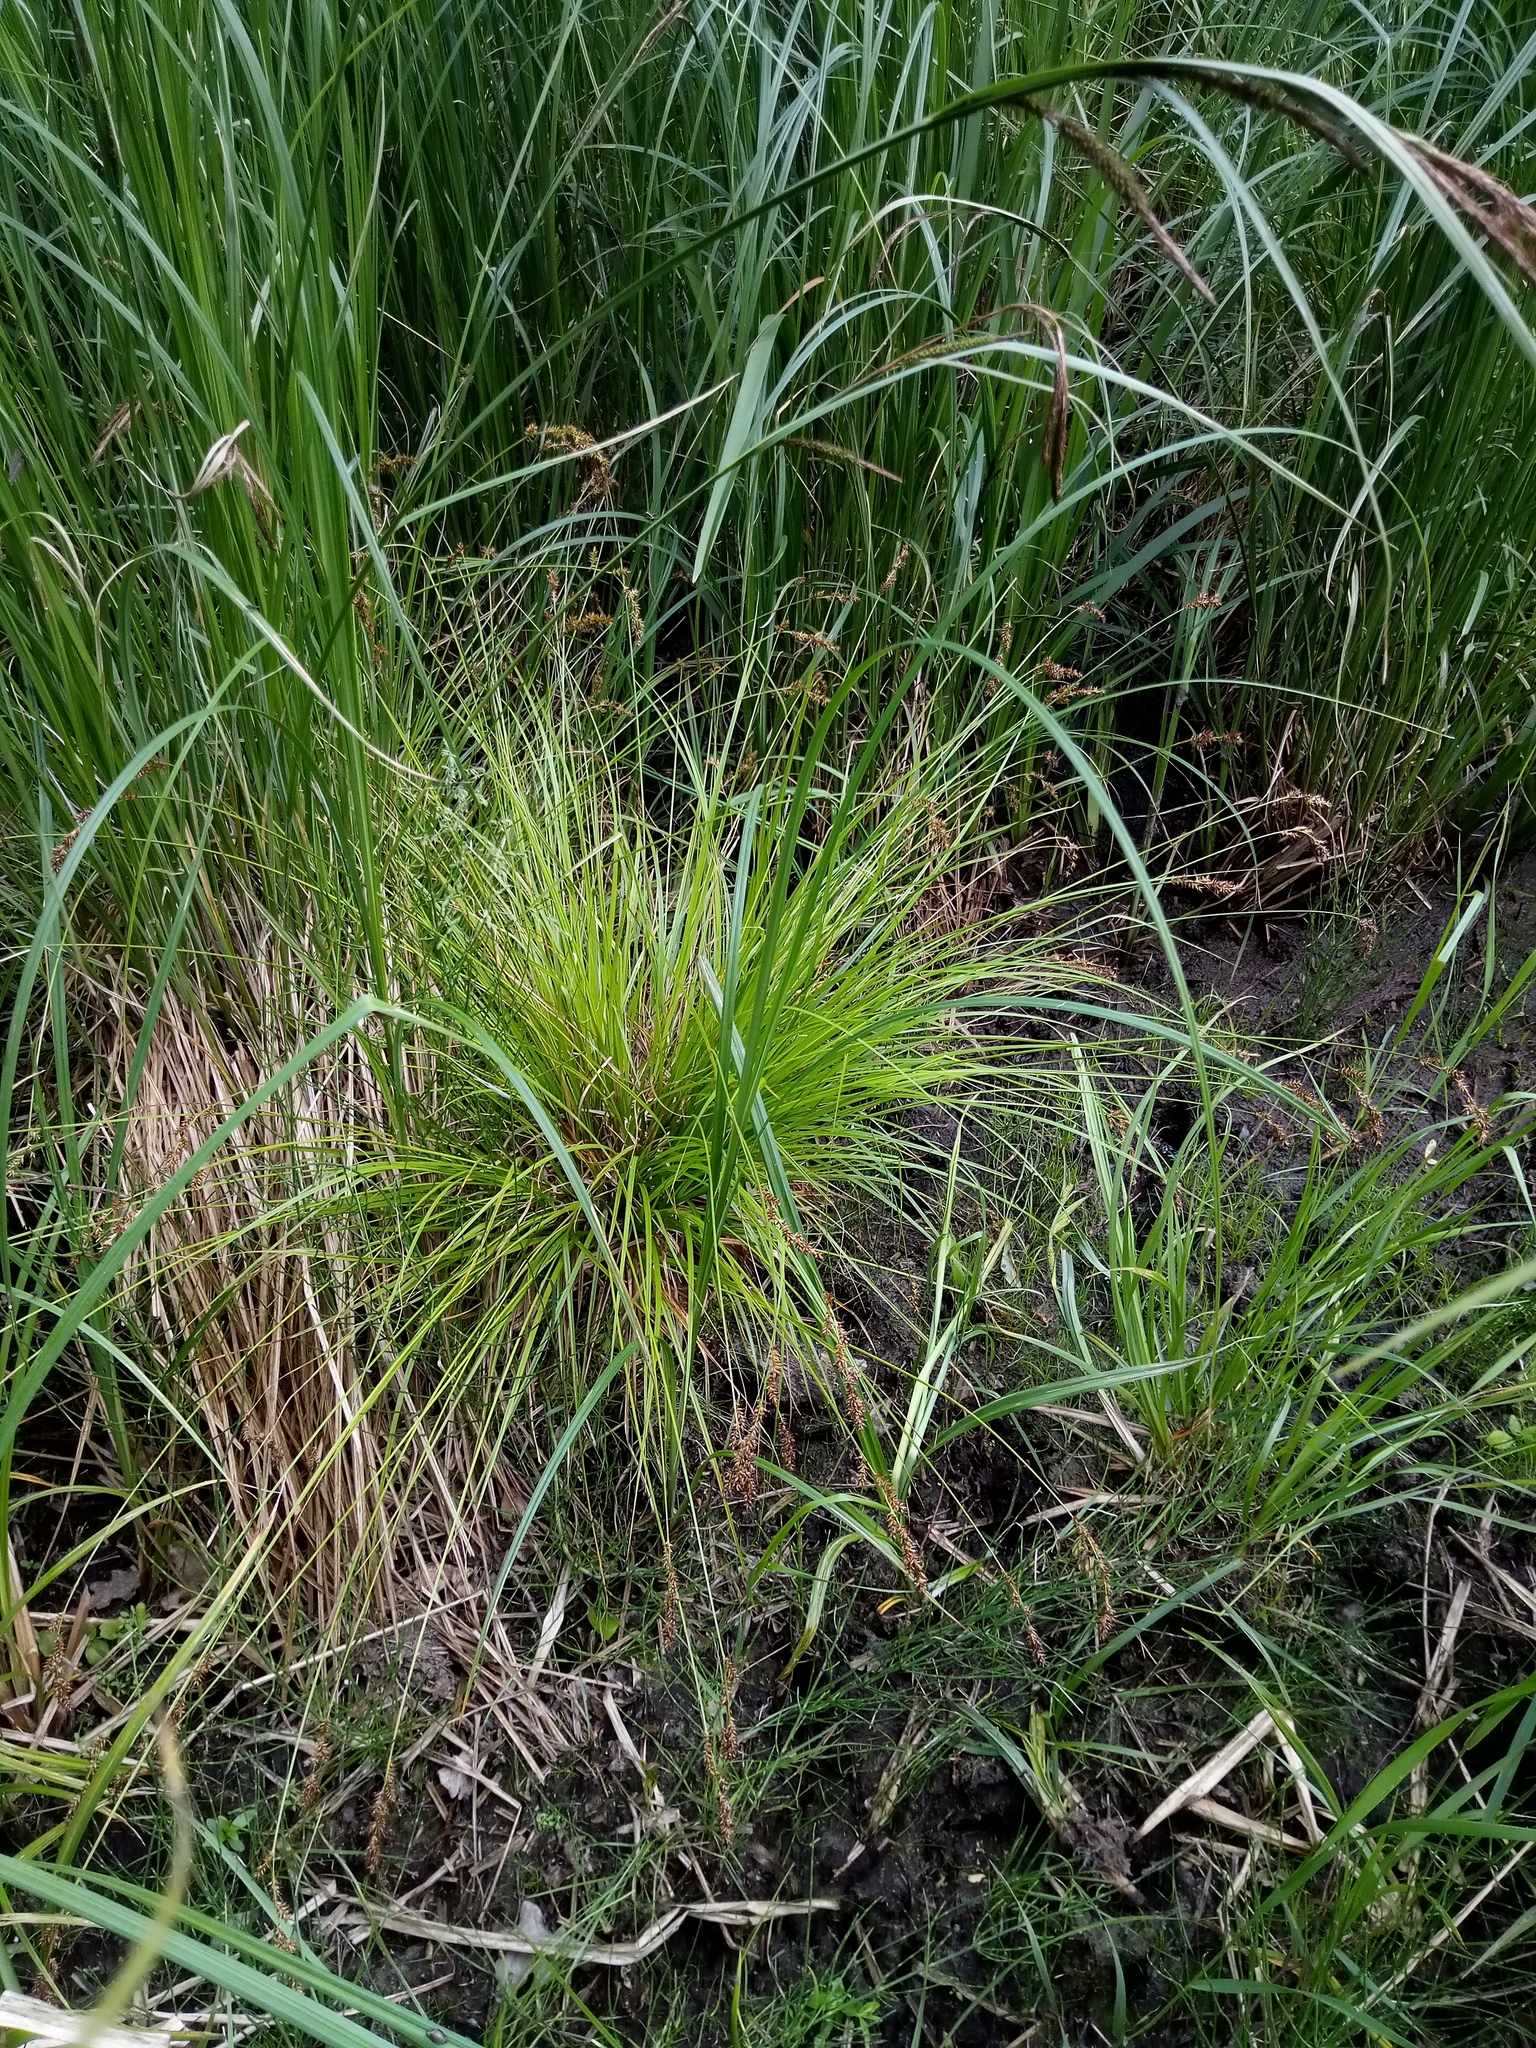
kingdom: Plantae
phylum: Tracheophyta
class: Liliopsida
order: Poales
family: Cyperaceae
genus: Carex
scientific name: Carex elongata
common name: Elongated sedge
